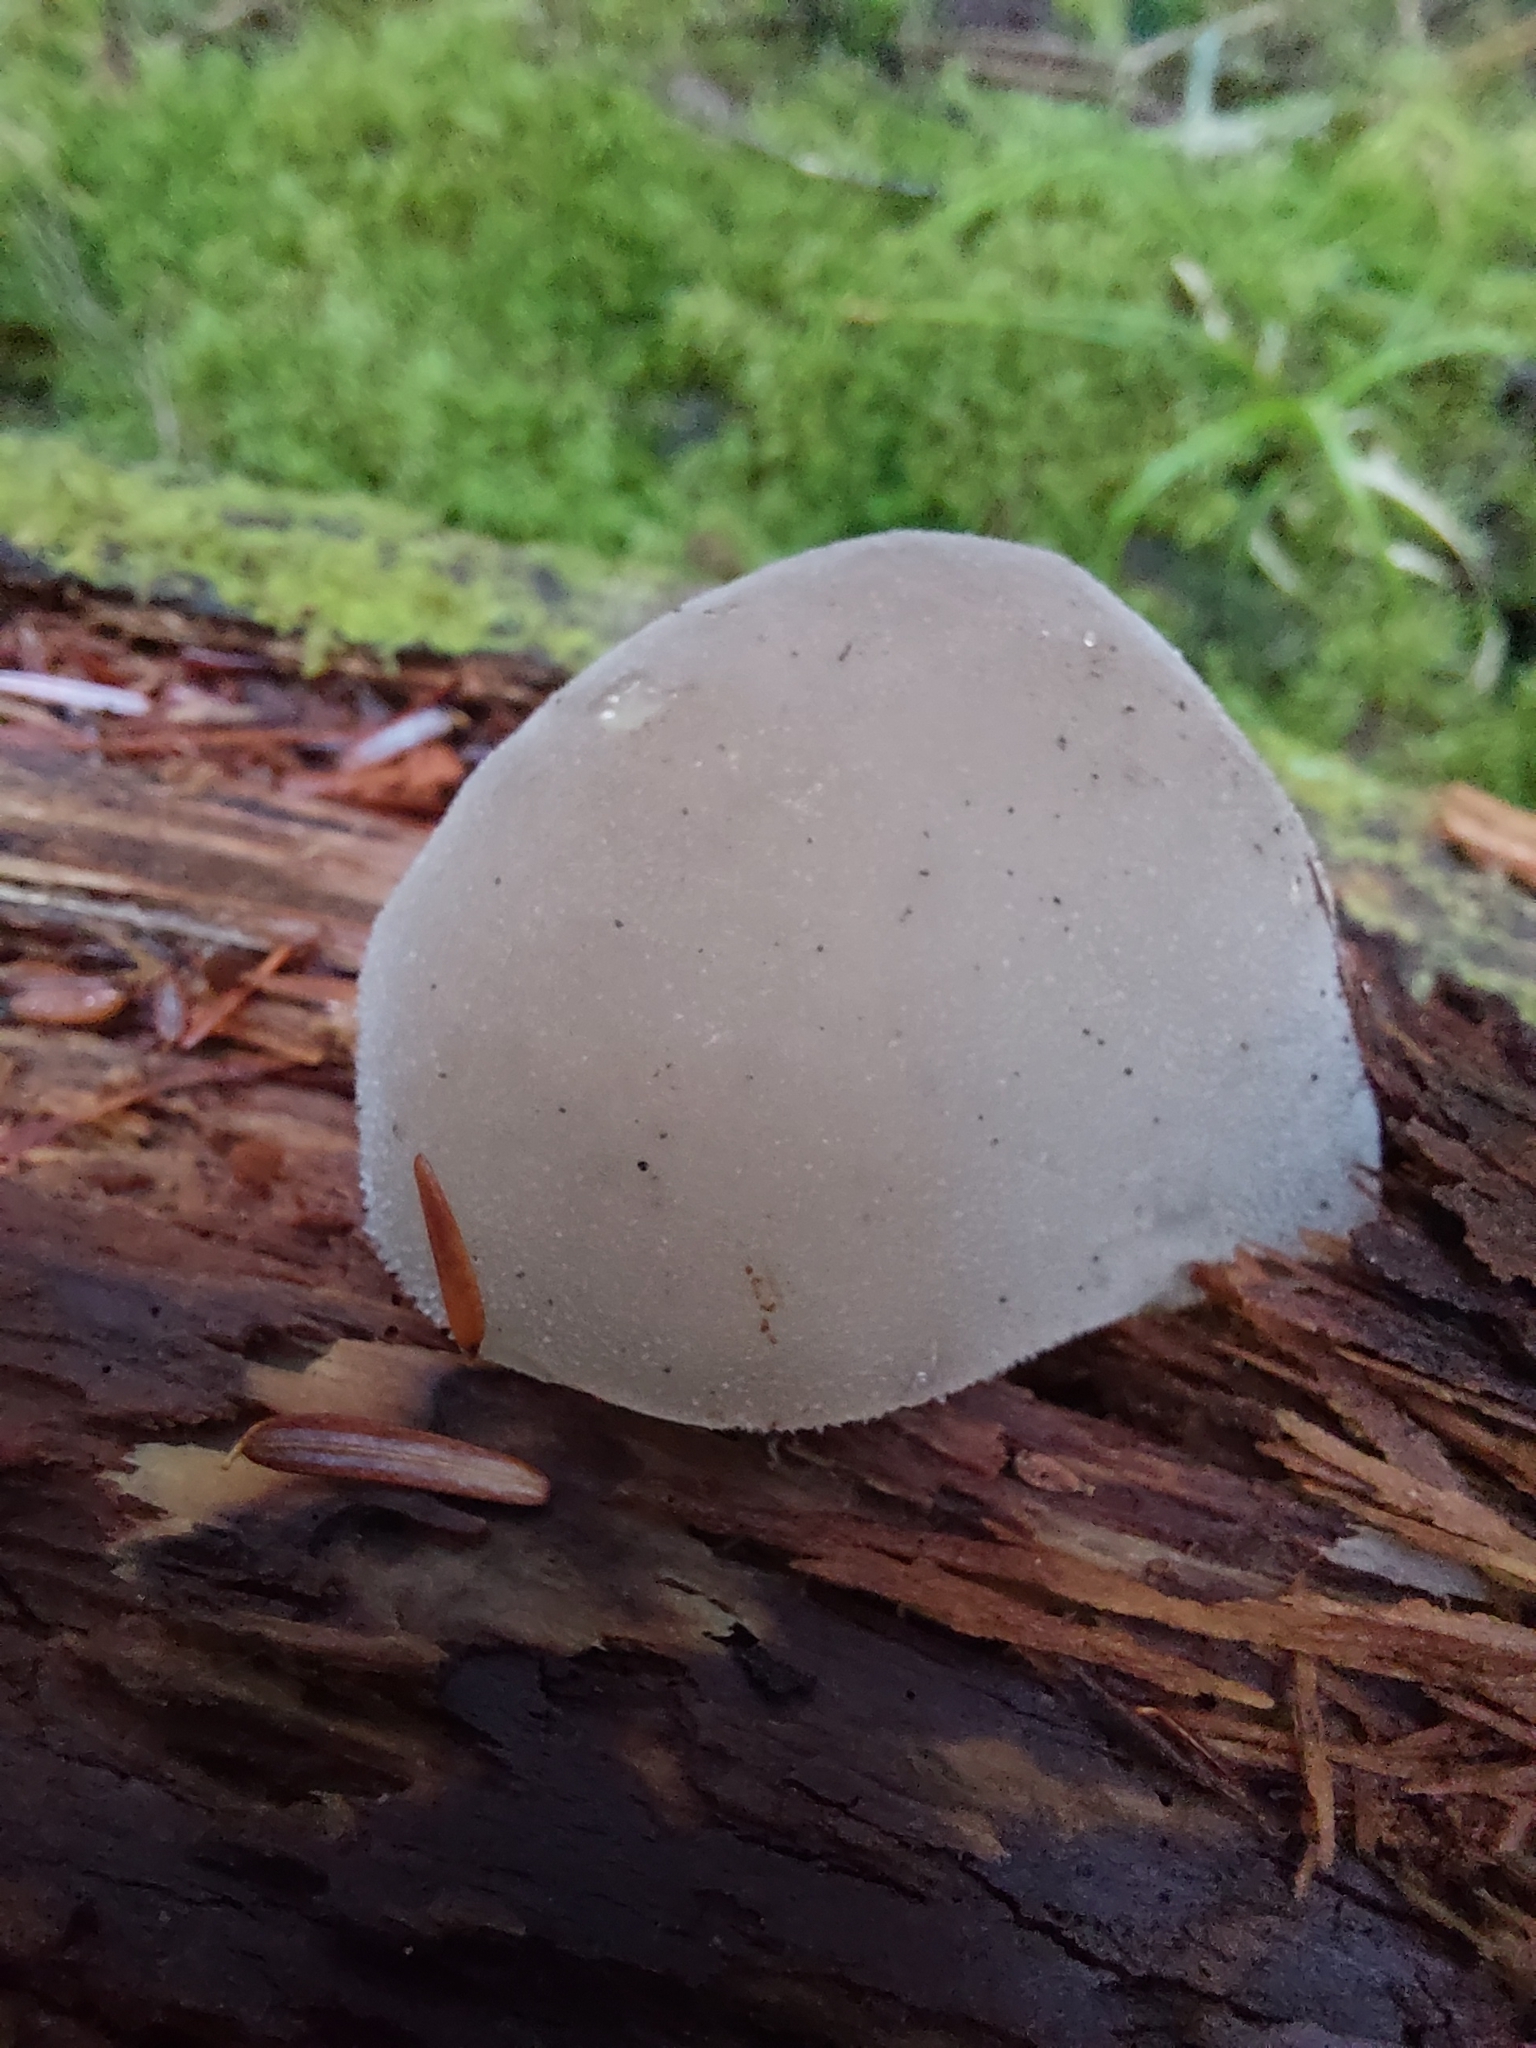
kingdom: Fungi
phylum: Basidiomycota
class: Agaricomycetes
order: Auriculariales
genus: Pseudohydnum
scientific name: Pseudohydnum gelatinosum
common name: Jelly tongue
